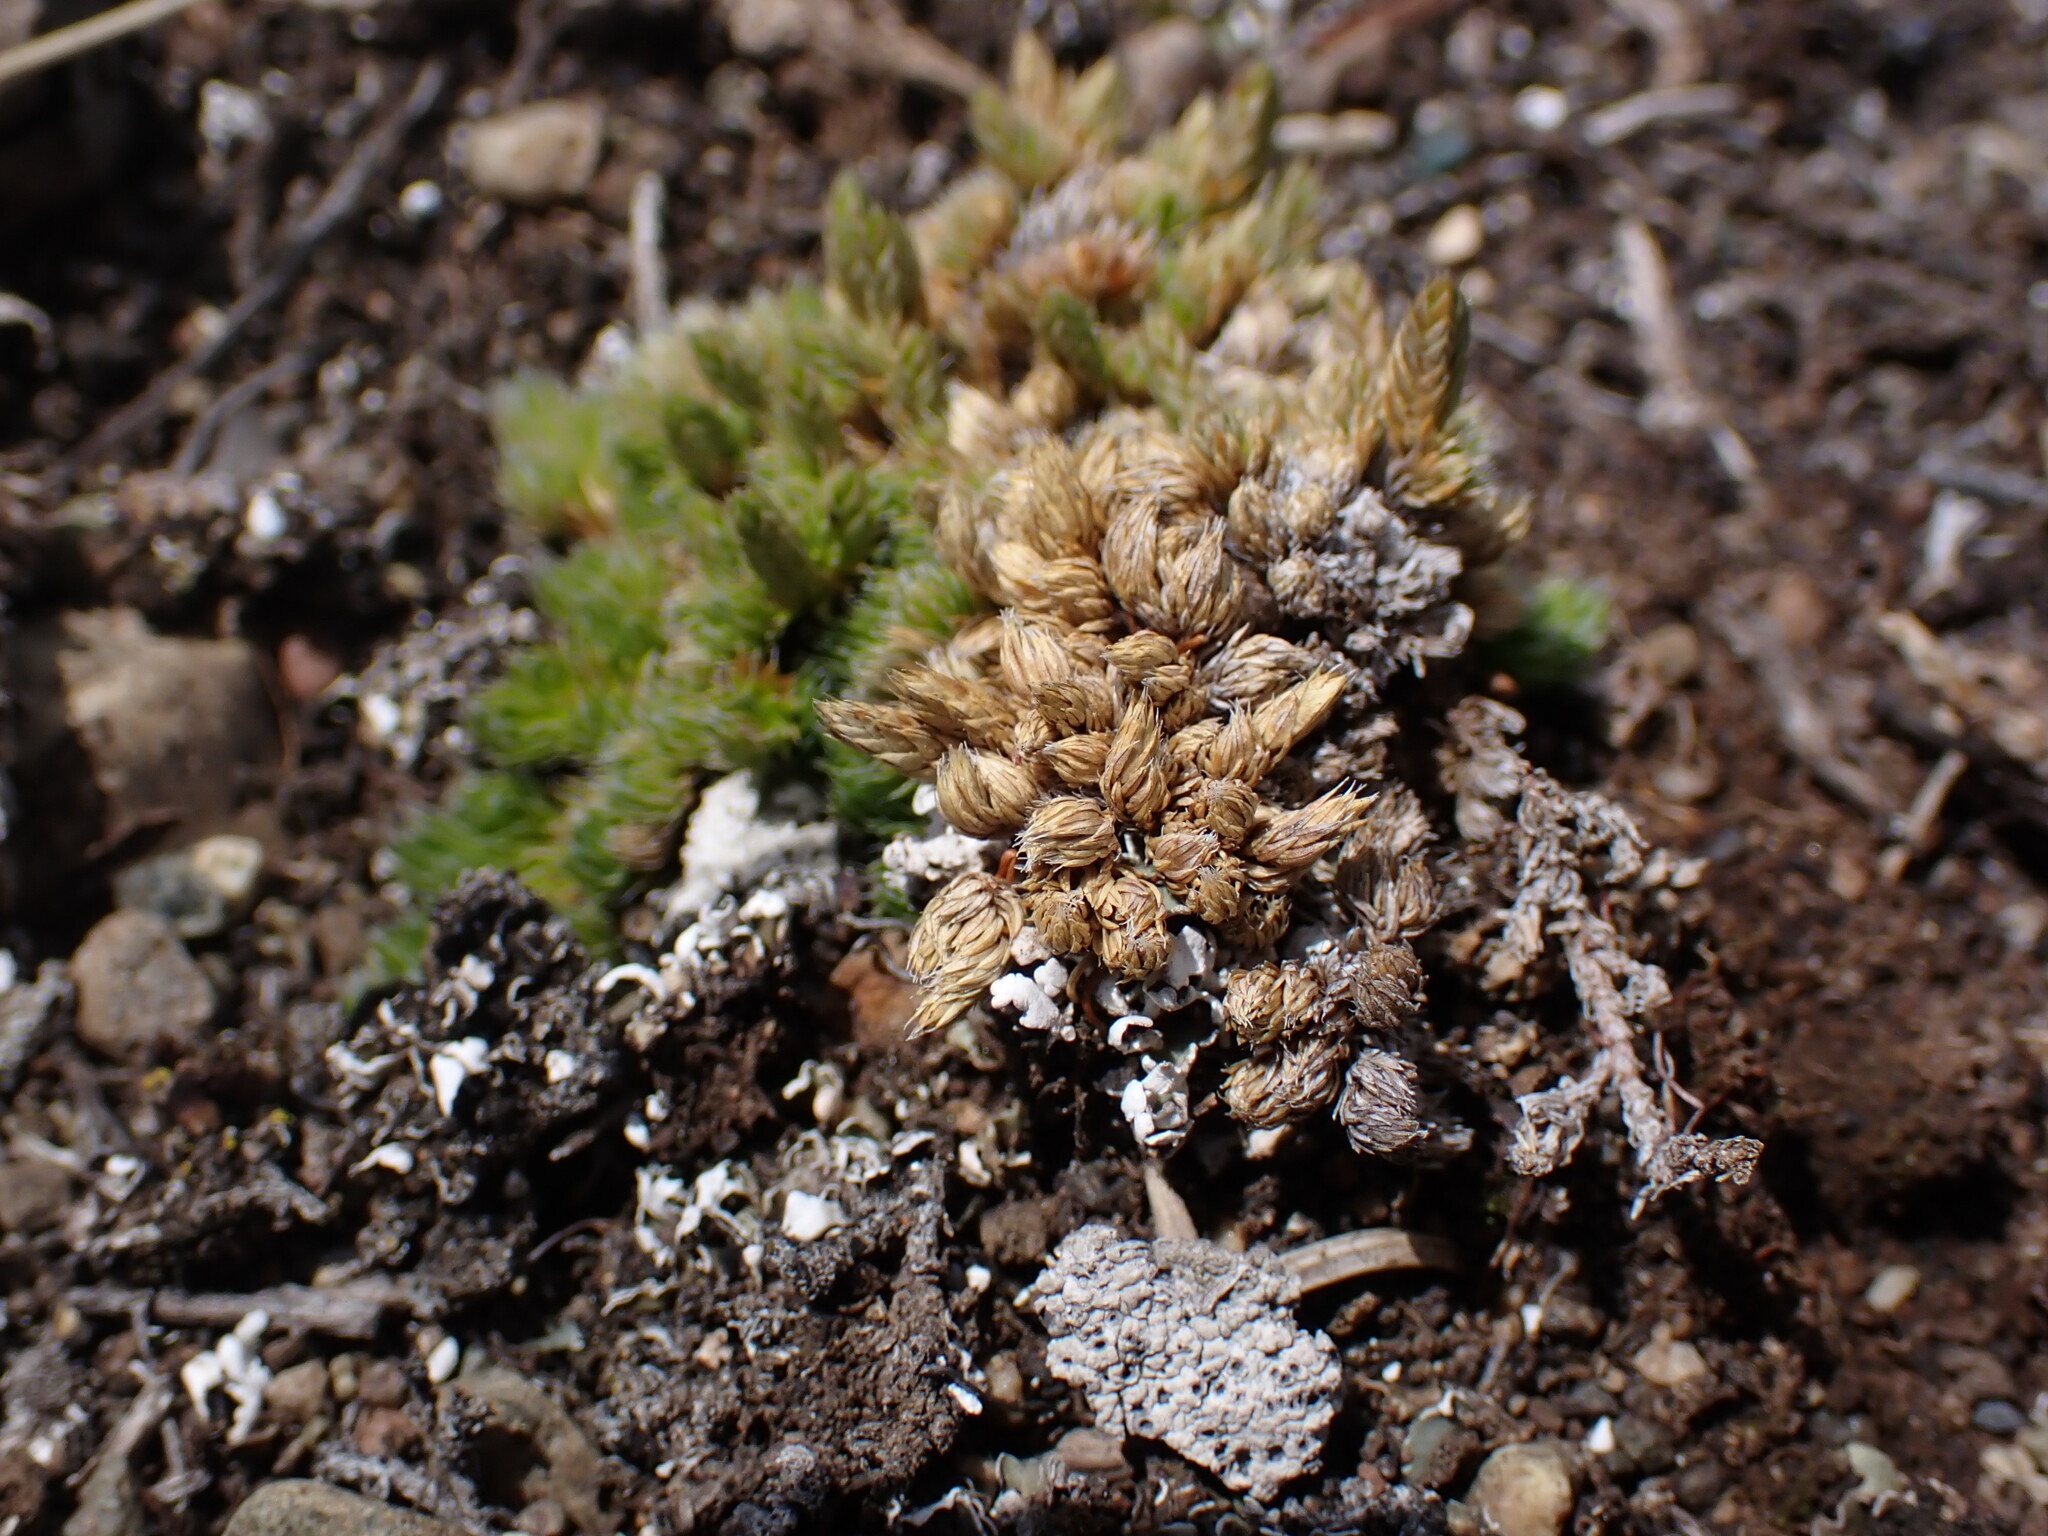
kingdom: Plantae
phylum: Tracheophyta
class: Lycopodiopsida
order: Selaginellales
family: Selaginellaceae
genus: Selaginella
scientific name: Selaginella densa
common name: Mountain spike-moss
